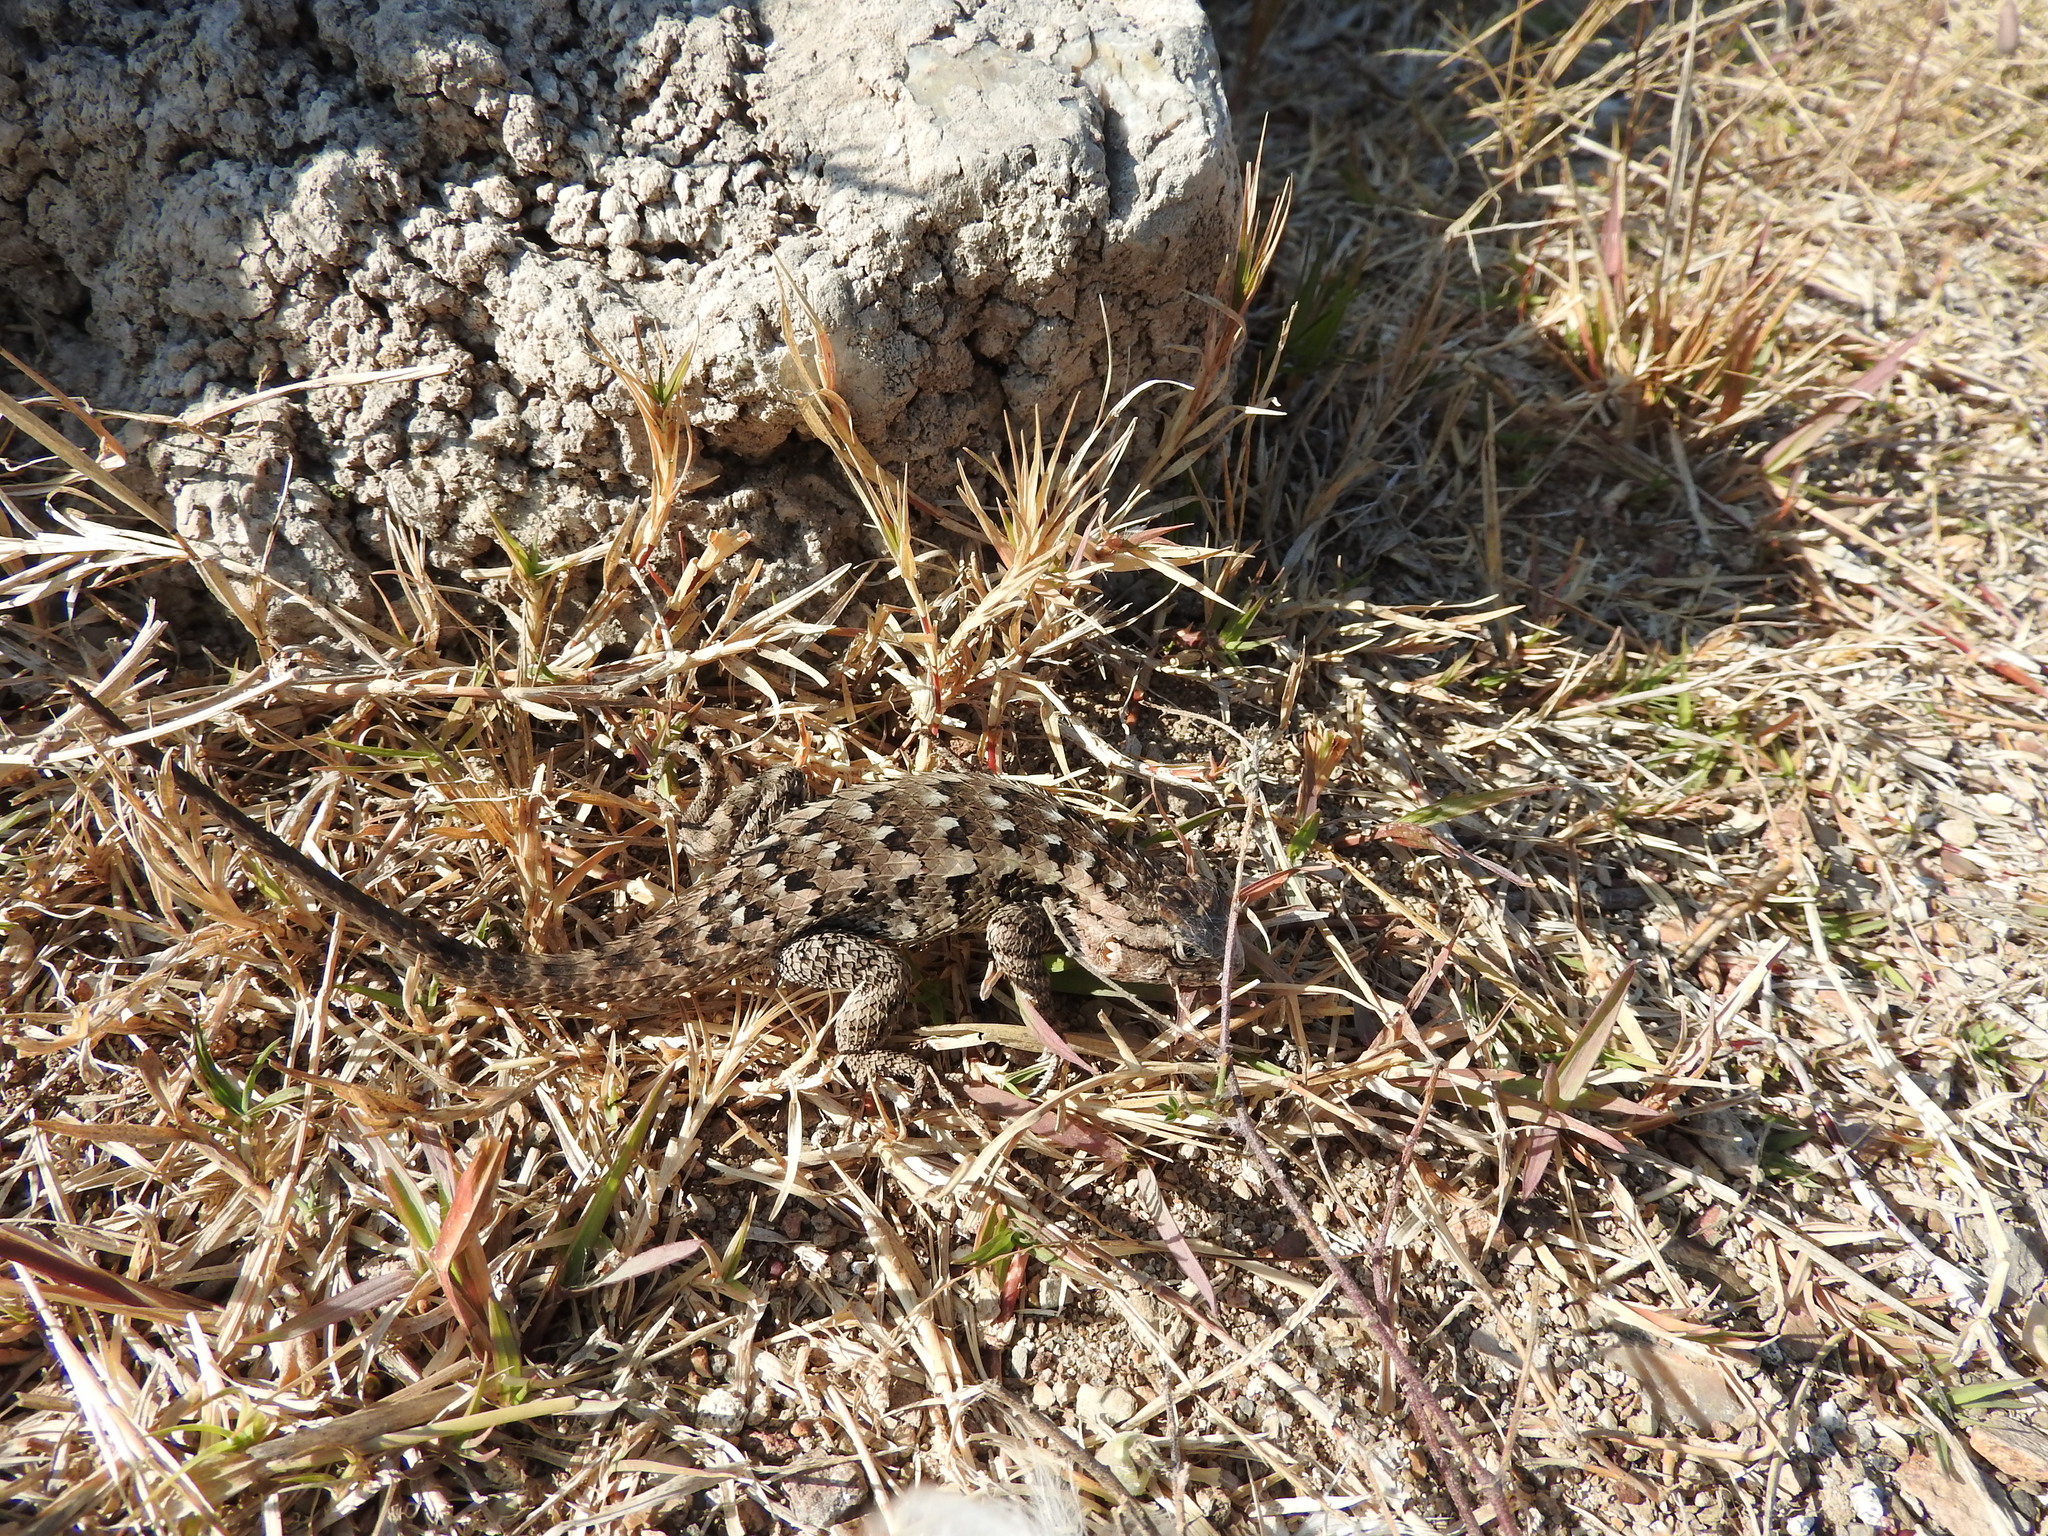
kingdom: Animalia
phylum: Chordata
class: Squamata
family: Phrynosomatidae
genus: Sceloporus
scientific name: Sceloporus spinosus
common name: Blue-spotted spiny lizard [caeruleopunctatus]
